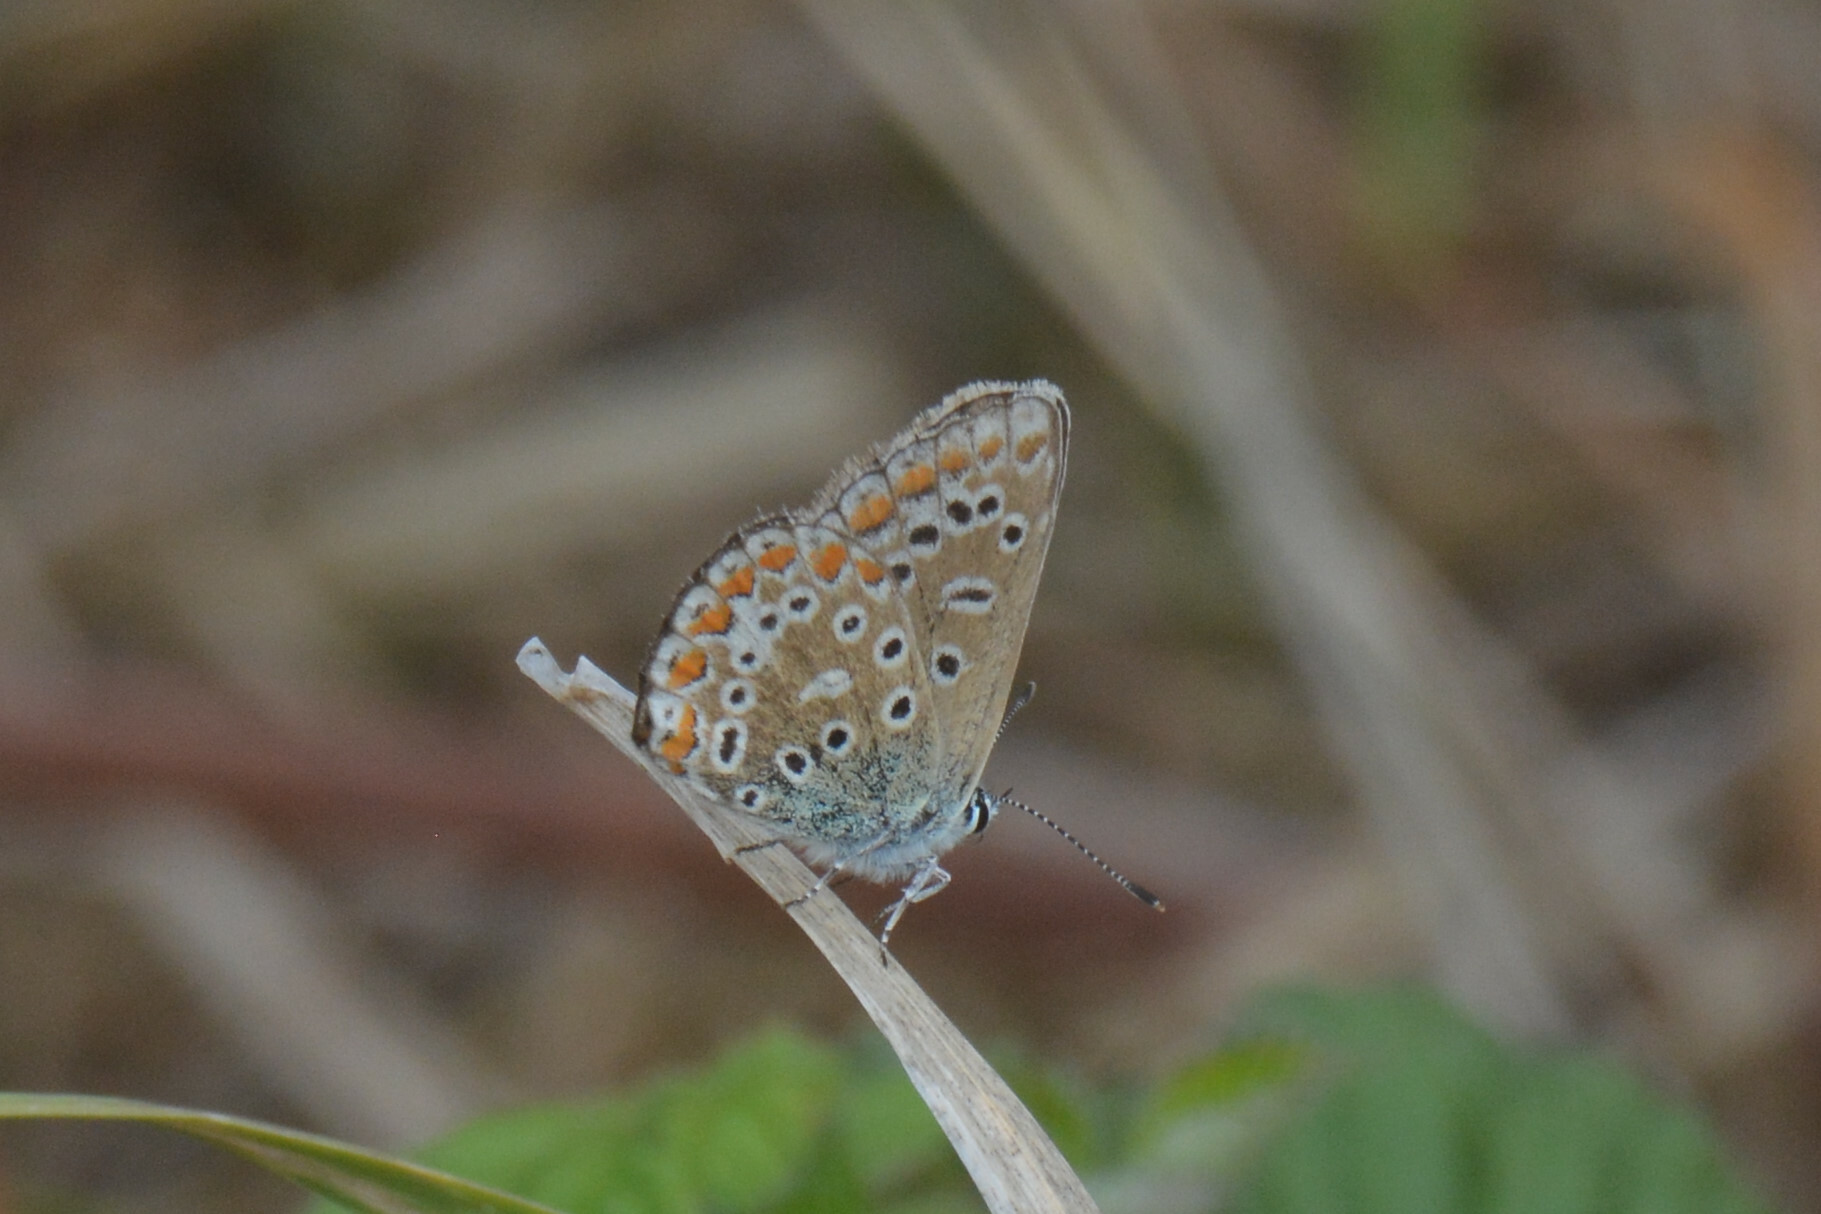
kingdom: Animalia
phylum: Arthropoda
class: Insecta
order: Lepidoptera
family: Lycaenidae
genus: Polyommatus
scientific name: Polyommatus icarus
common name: Common blue
